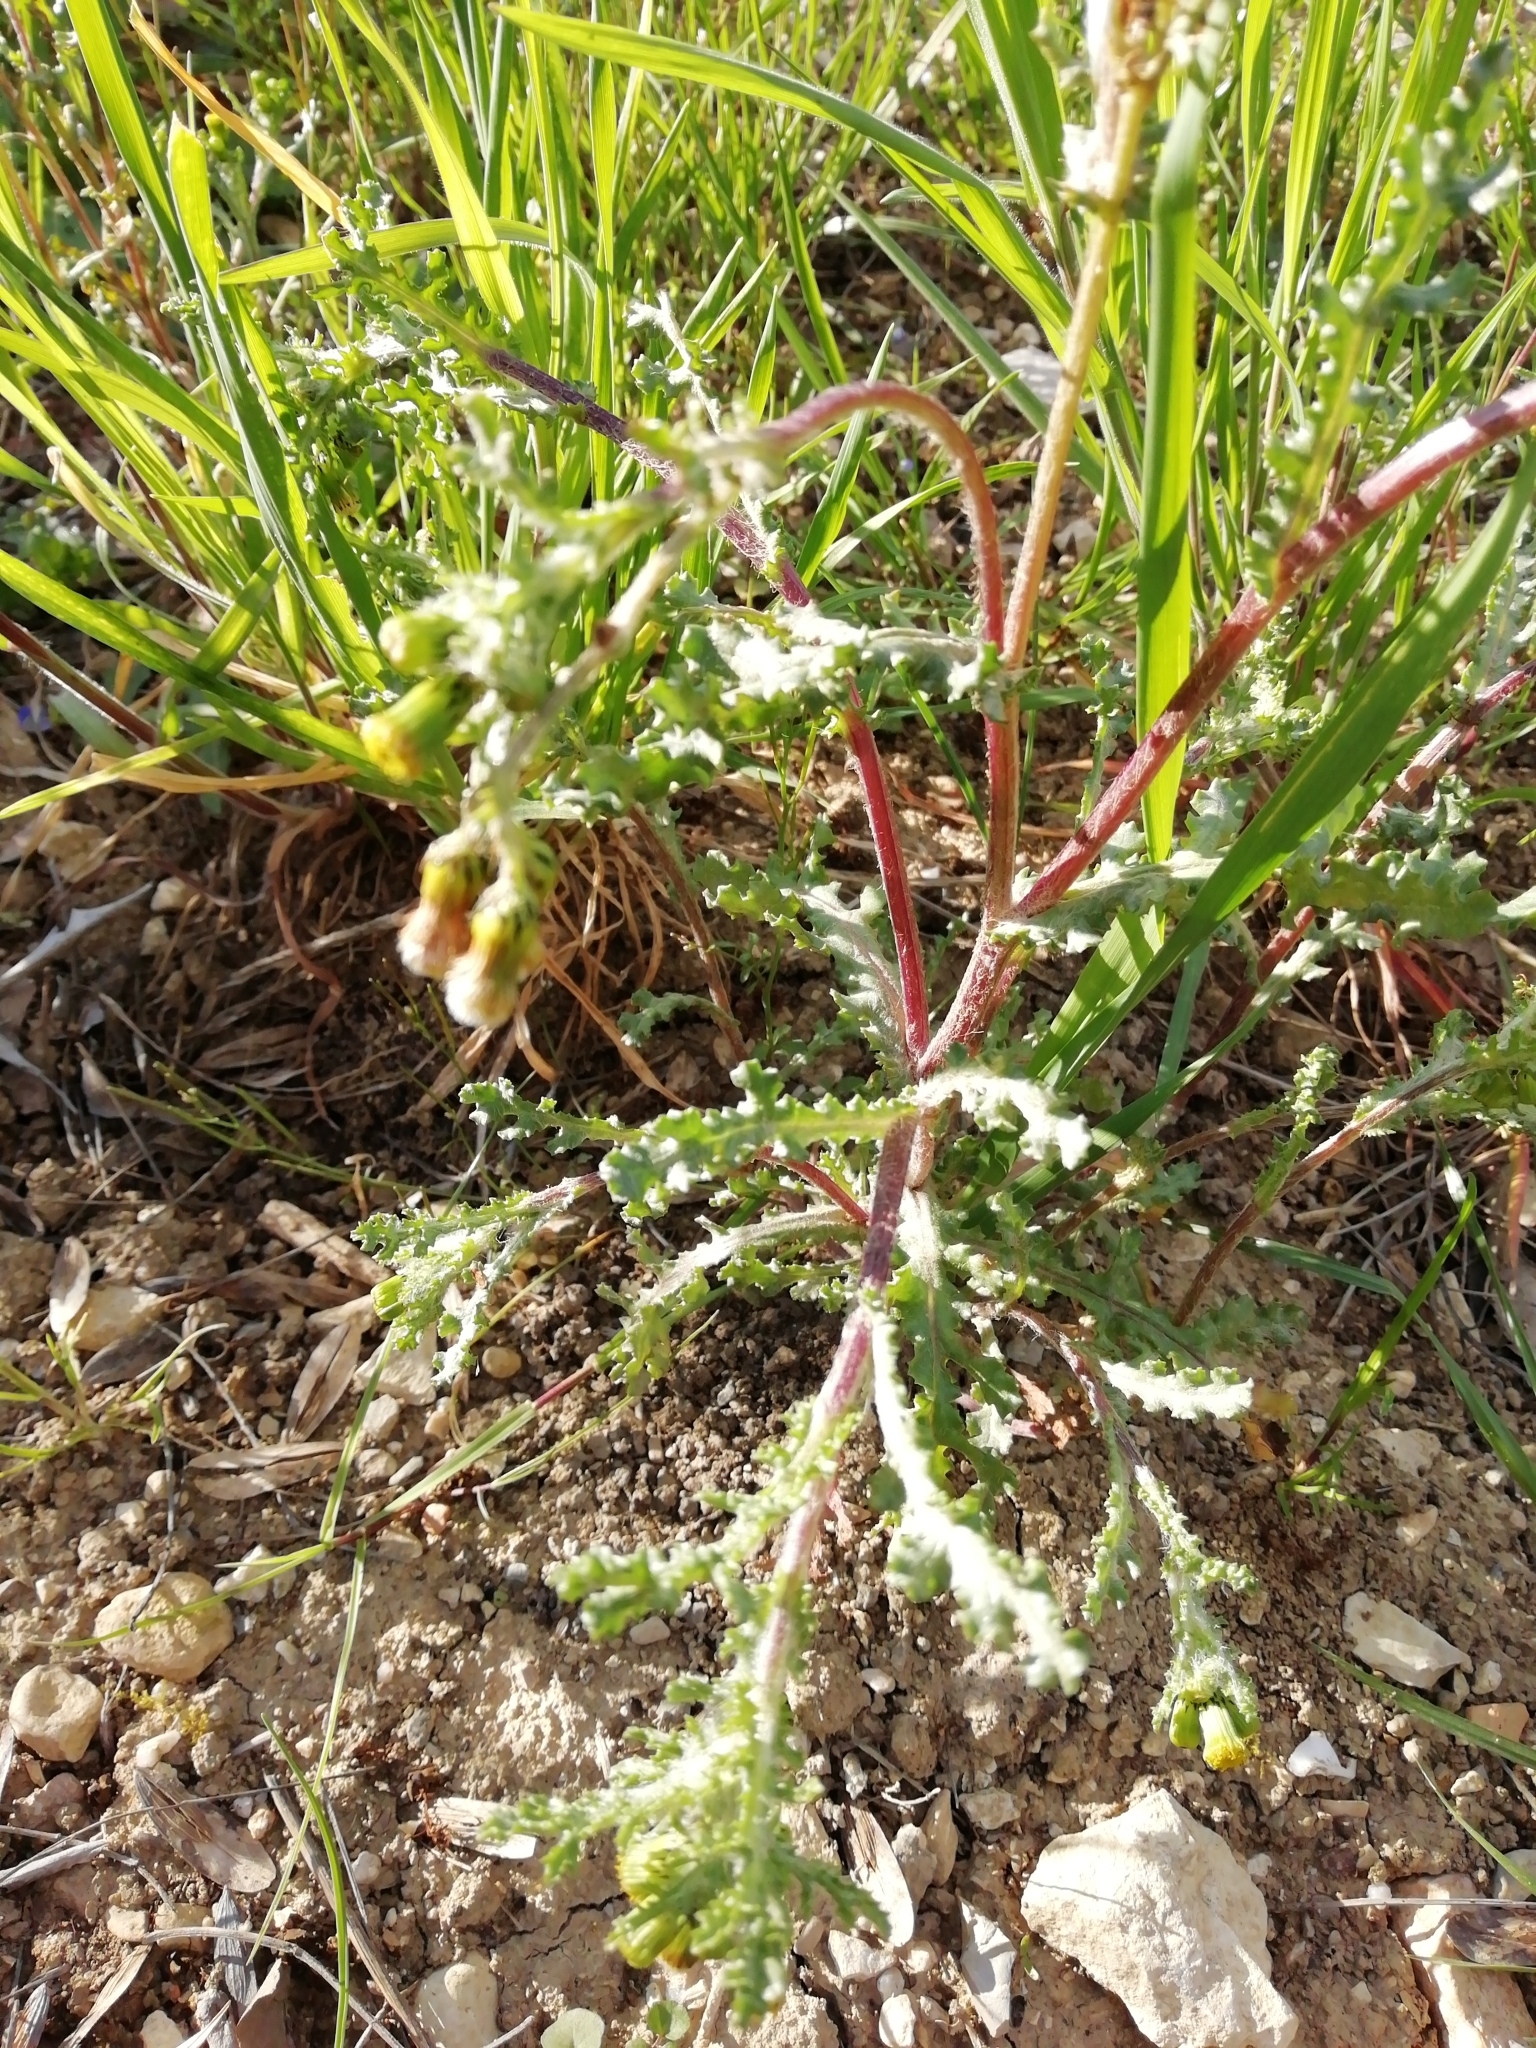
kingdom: Plantae
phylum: Tracheophyta
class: Magnoliopsida
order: Asterales
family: Asteraceae
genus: Senecio
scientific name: Senecio vulgaris
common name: Old-man-in-the-spring
